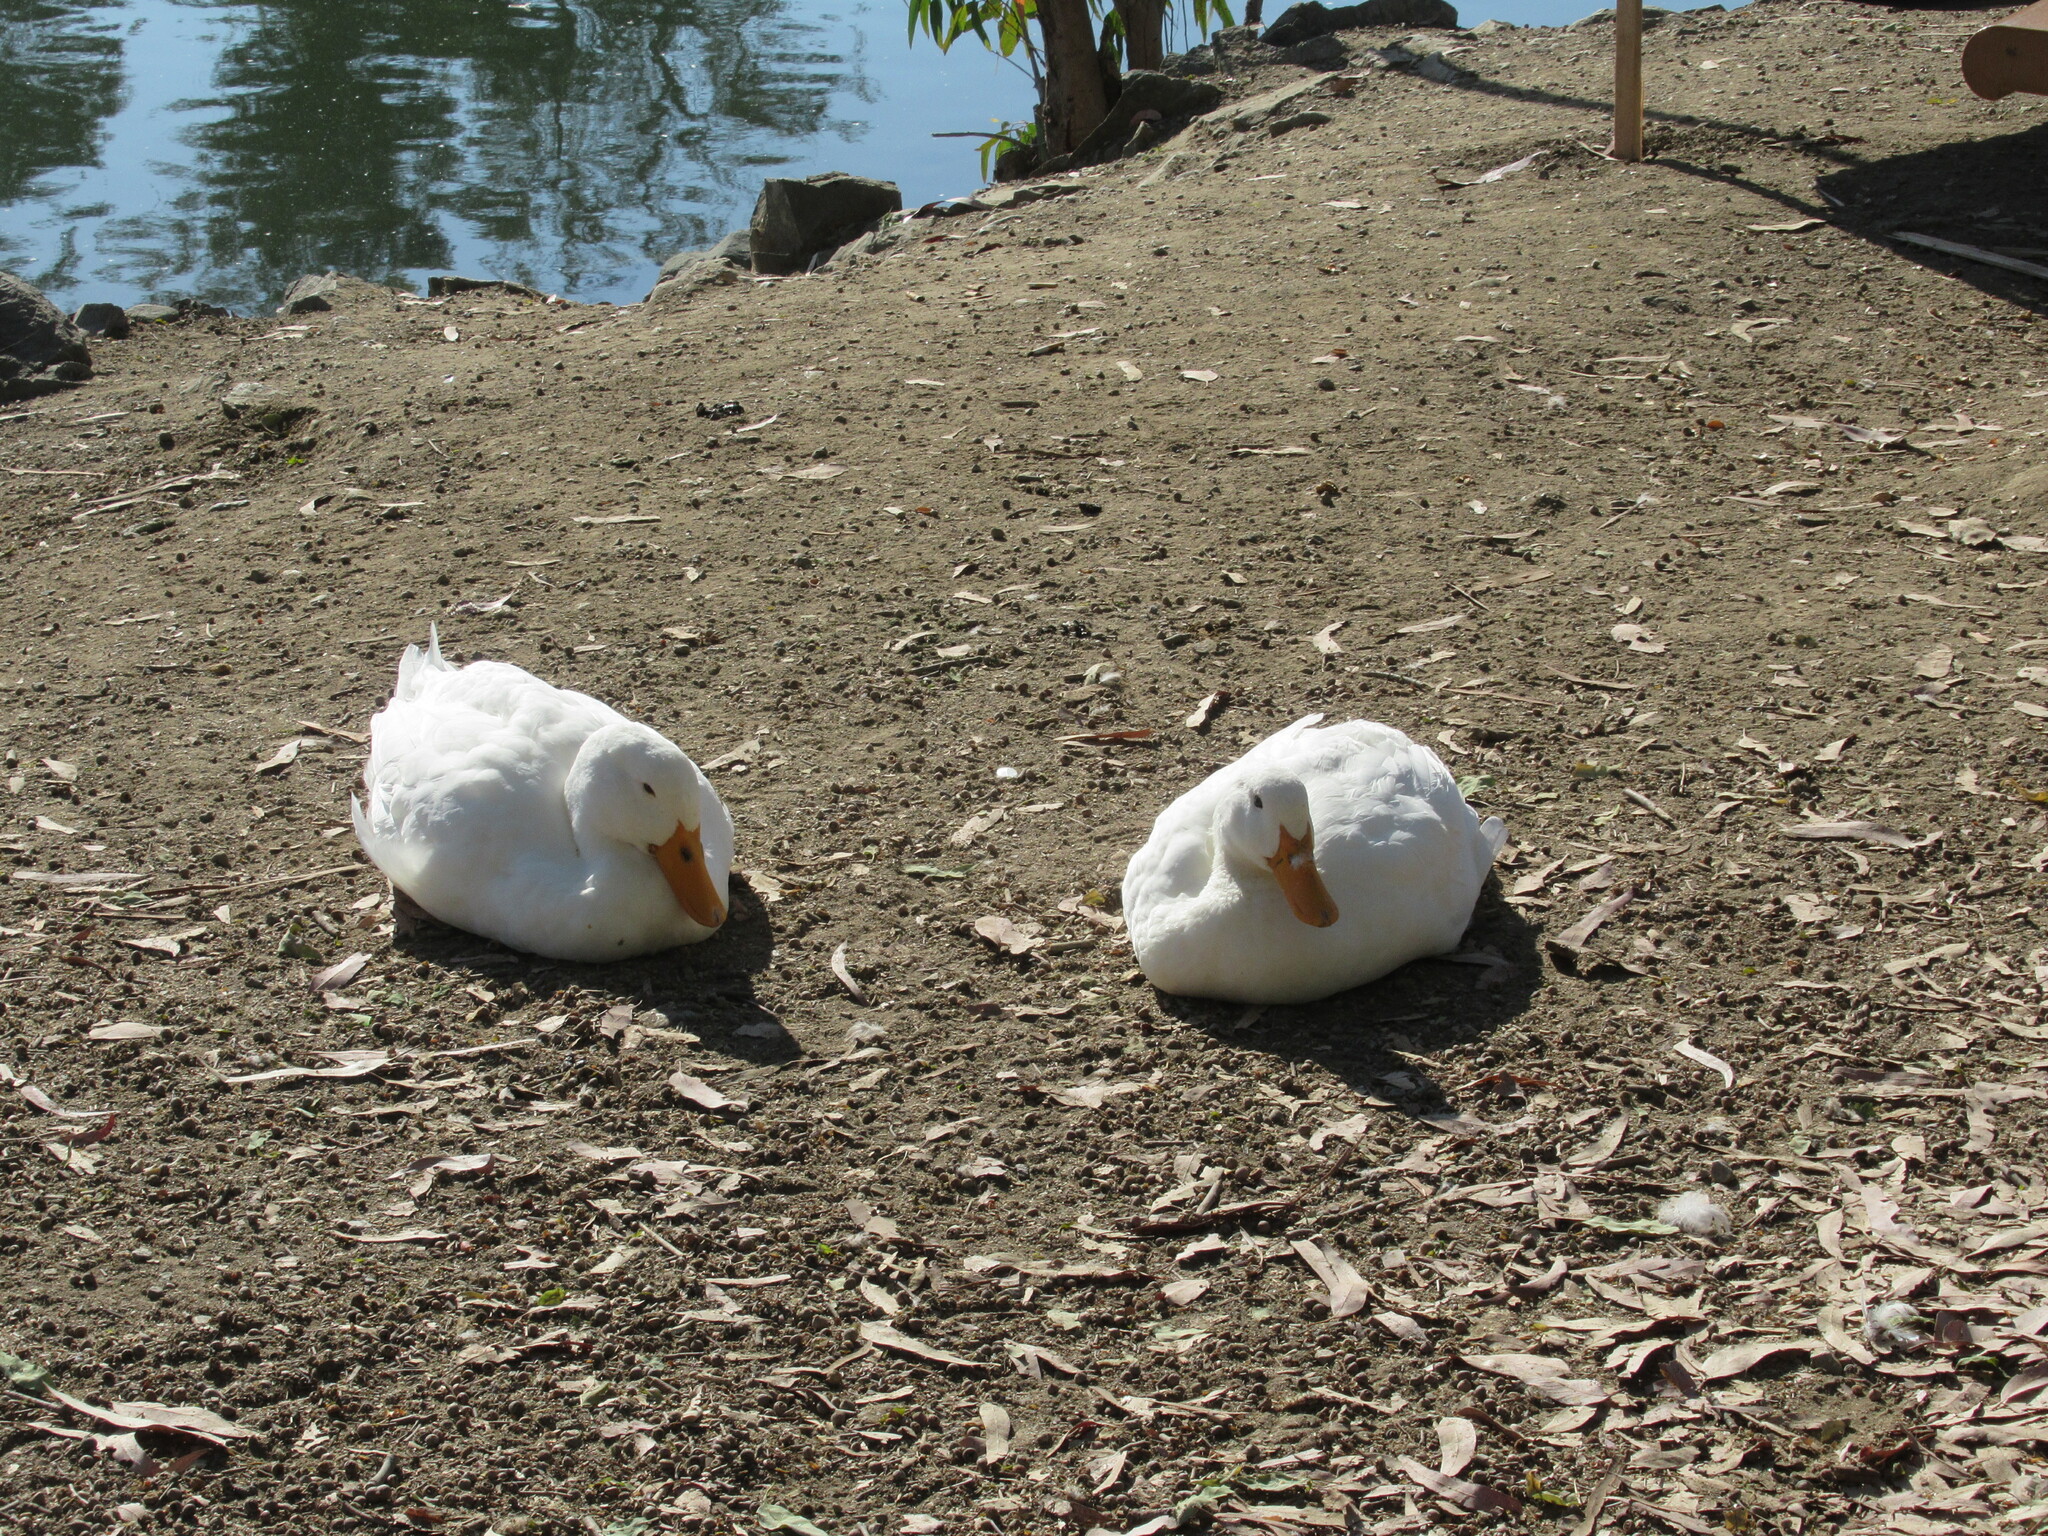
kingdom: Animalia
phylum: Chordata
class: Aves
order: Anseriformes
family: Anatidae
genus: Anas
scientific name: Anas platyrhynchos
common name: Mallard
